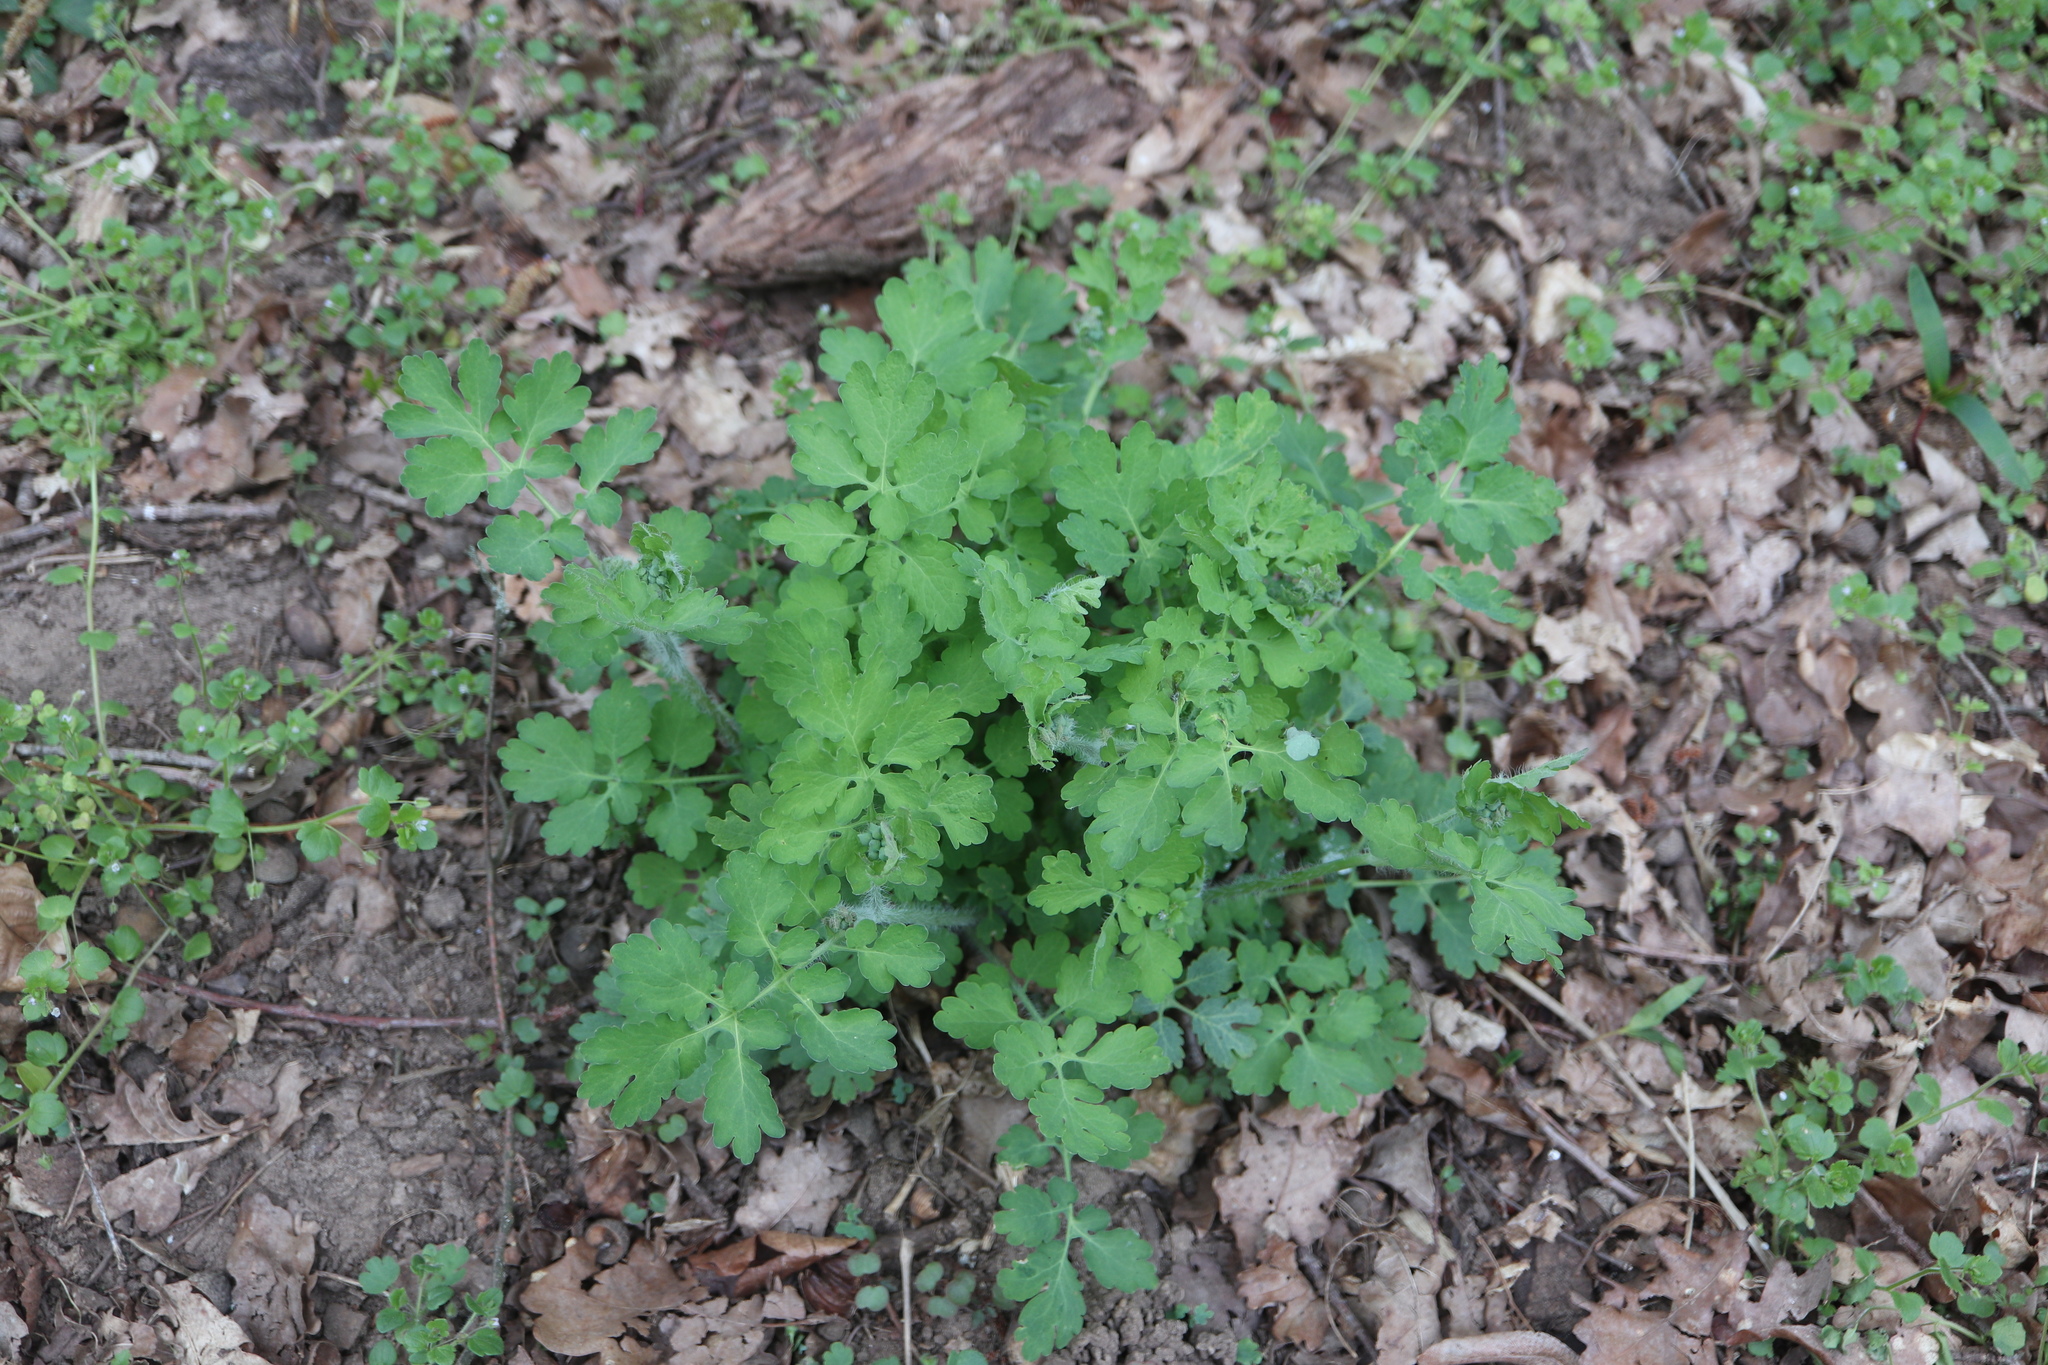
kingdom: Plantae
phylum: Tracheophyta
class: Magnoliopsida
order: Ranunculales
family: Papaveraceae
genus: Chelidonium
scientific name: Chelidonium majus
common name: Greater celandine
